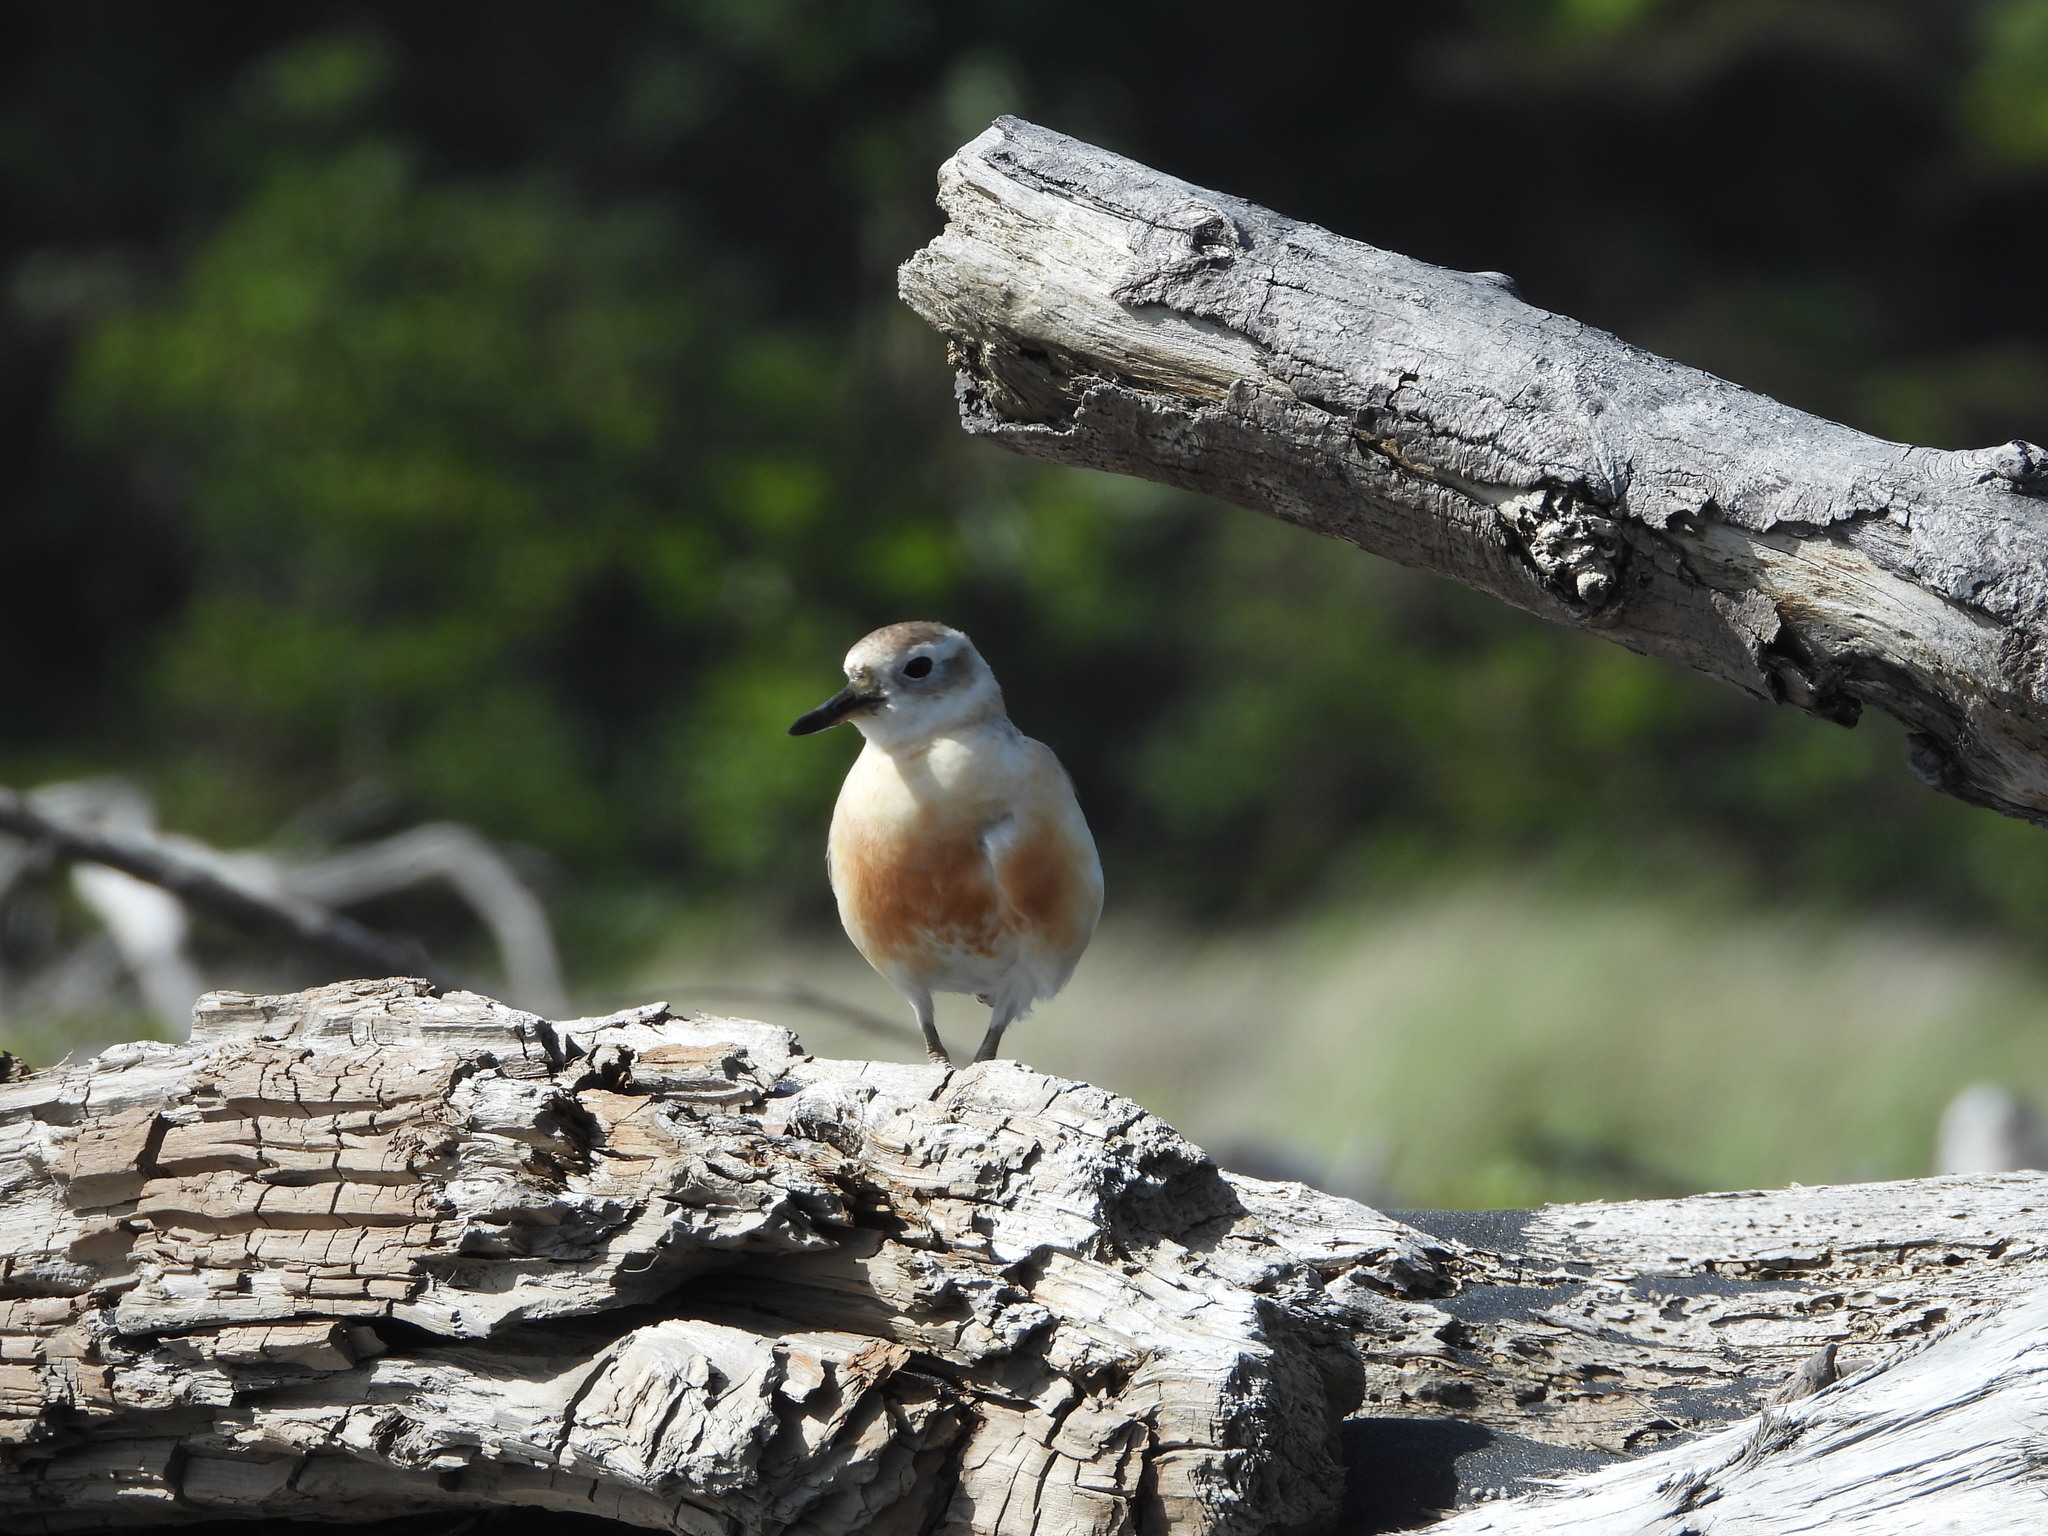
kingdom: Animalia
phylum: Chordata
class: Aves
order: Charadriiformes
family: Charadriidae
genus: Anarhynchus
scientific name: Anarhynchus
